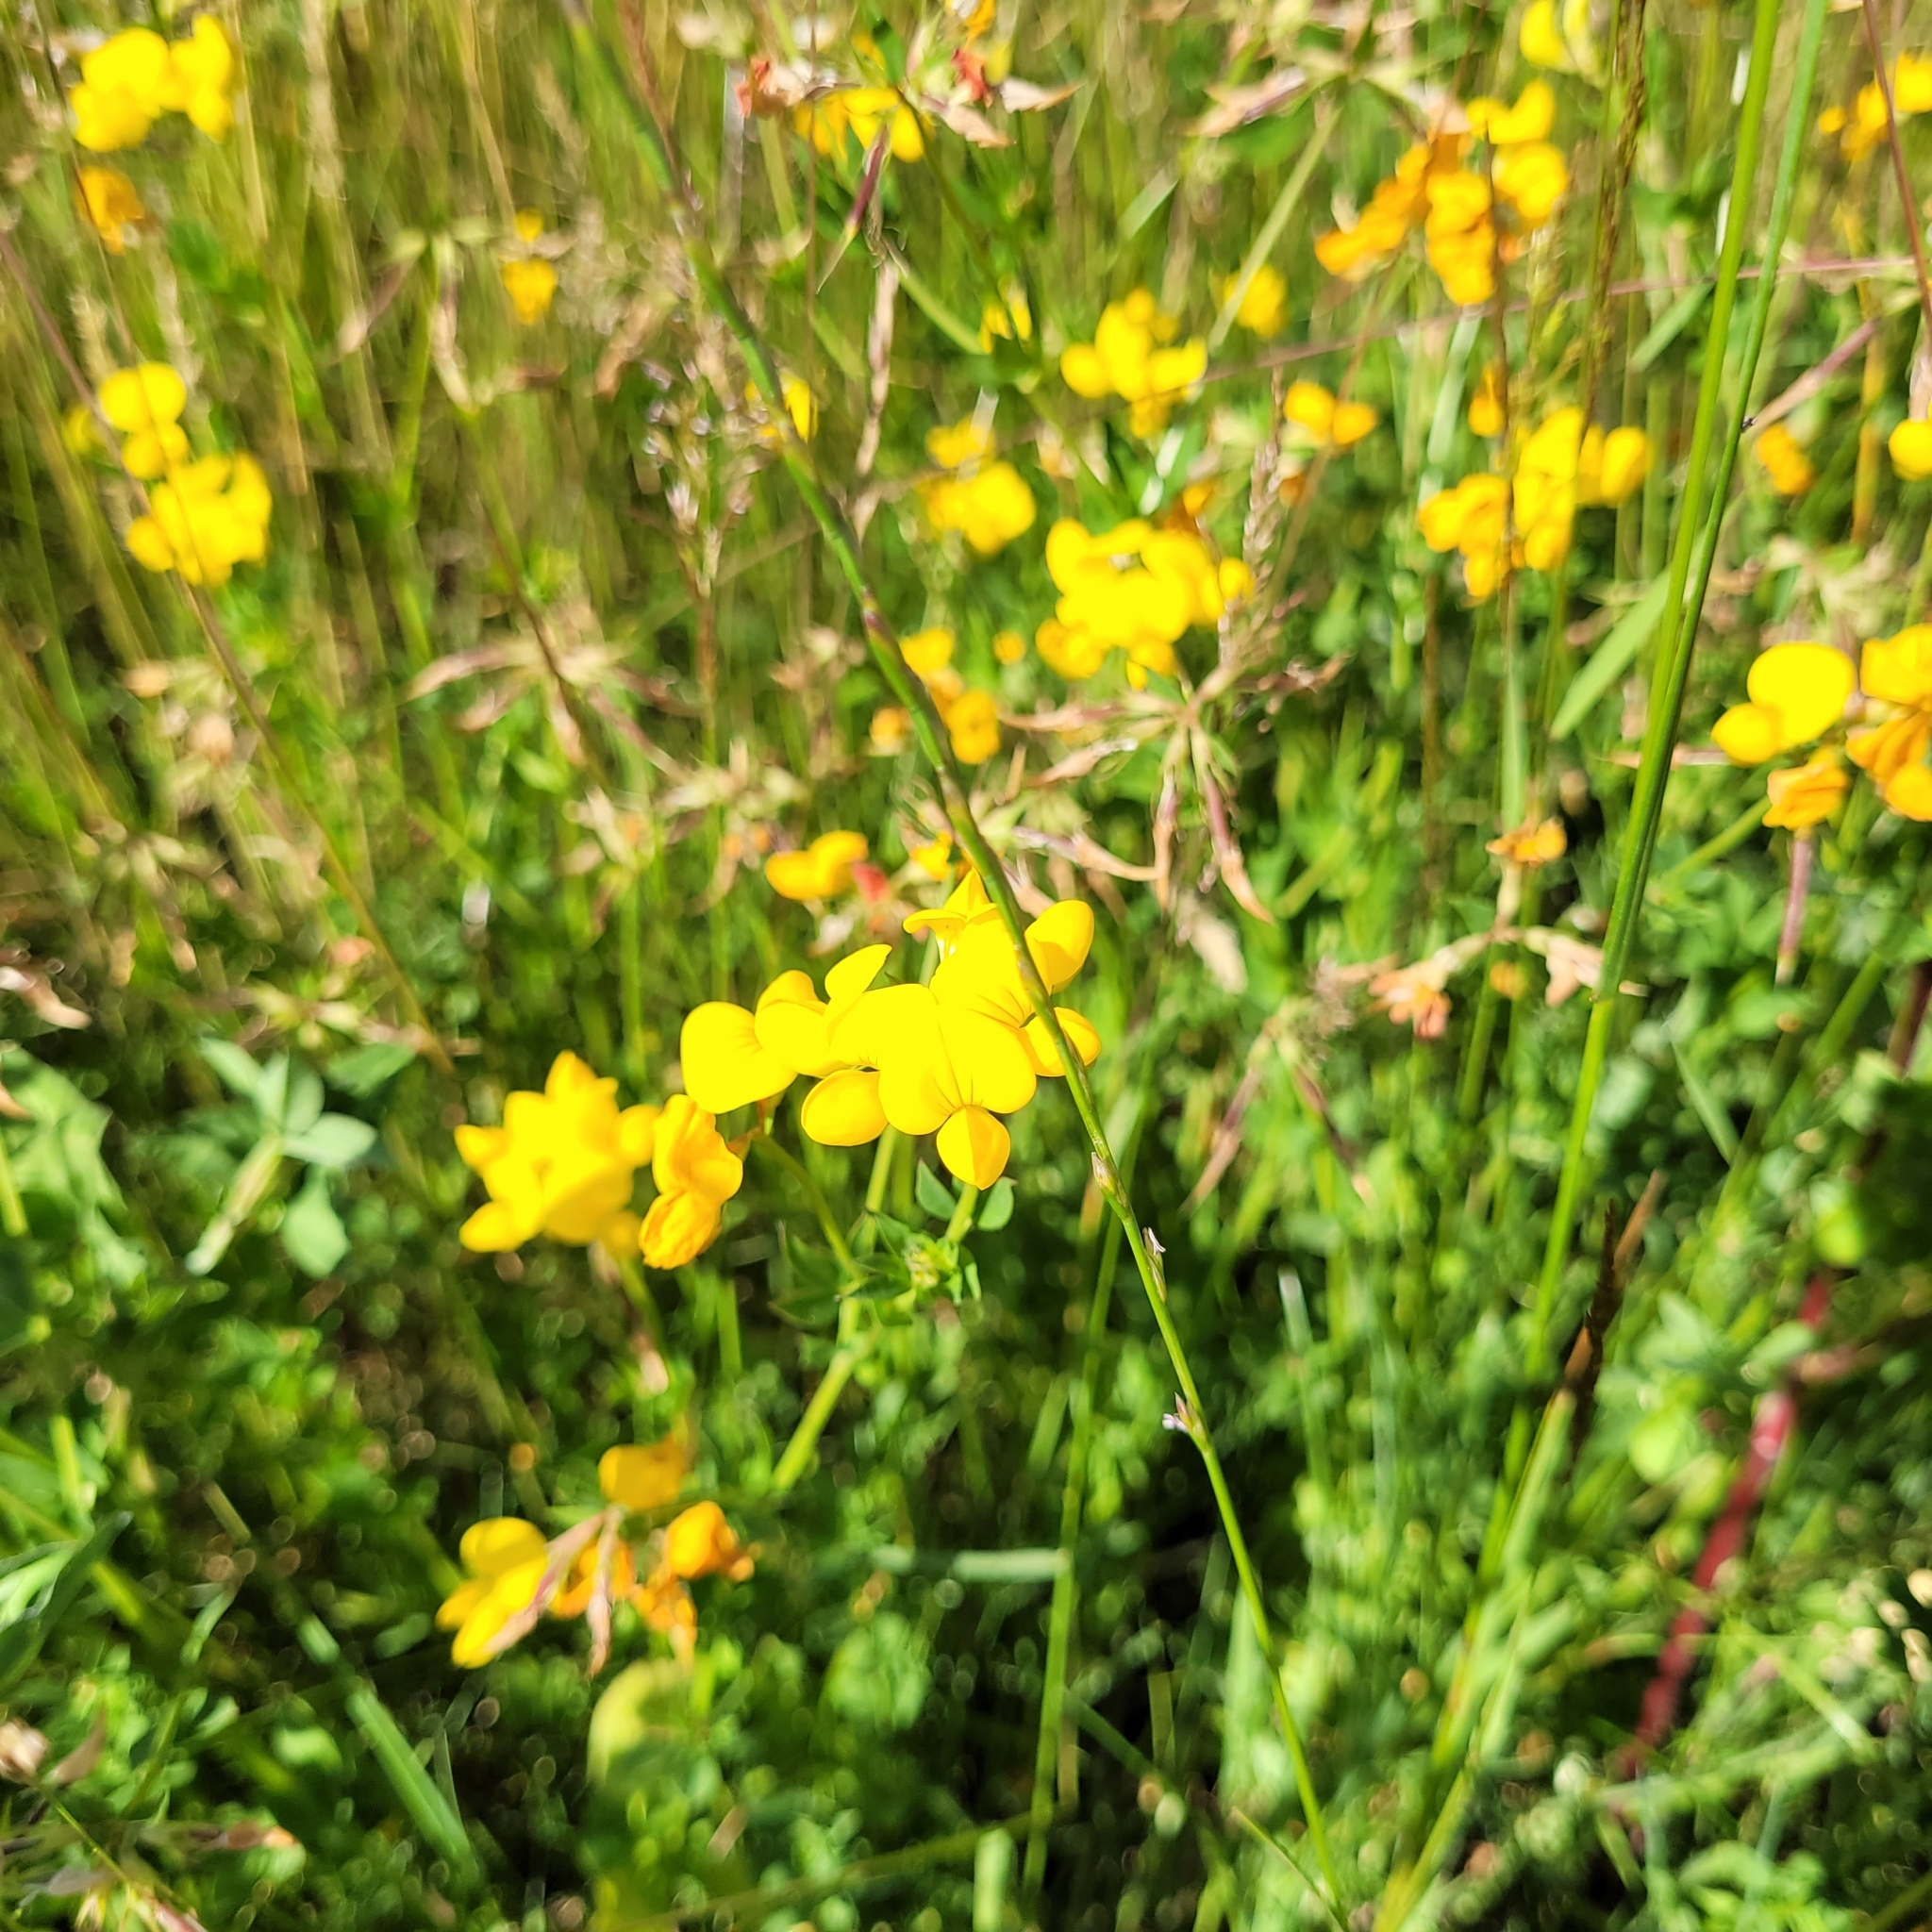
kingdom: Plantae
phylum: Tracheophyta
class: Magnoliopsida
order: Fabales
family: Fabaceae
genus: Lotus
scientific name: Lotus corniculatus
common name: Common bird's-foot-trefoil
